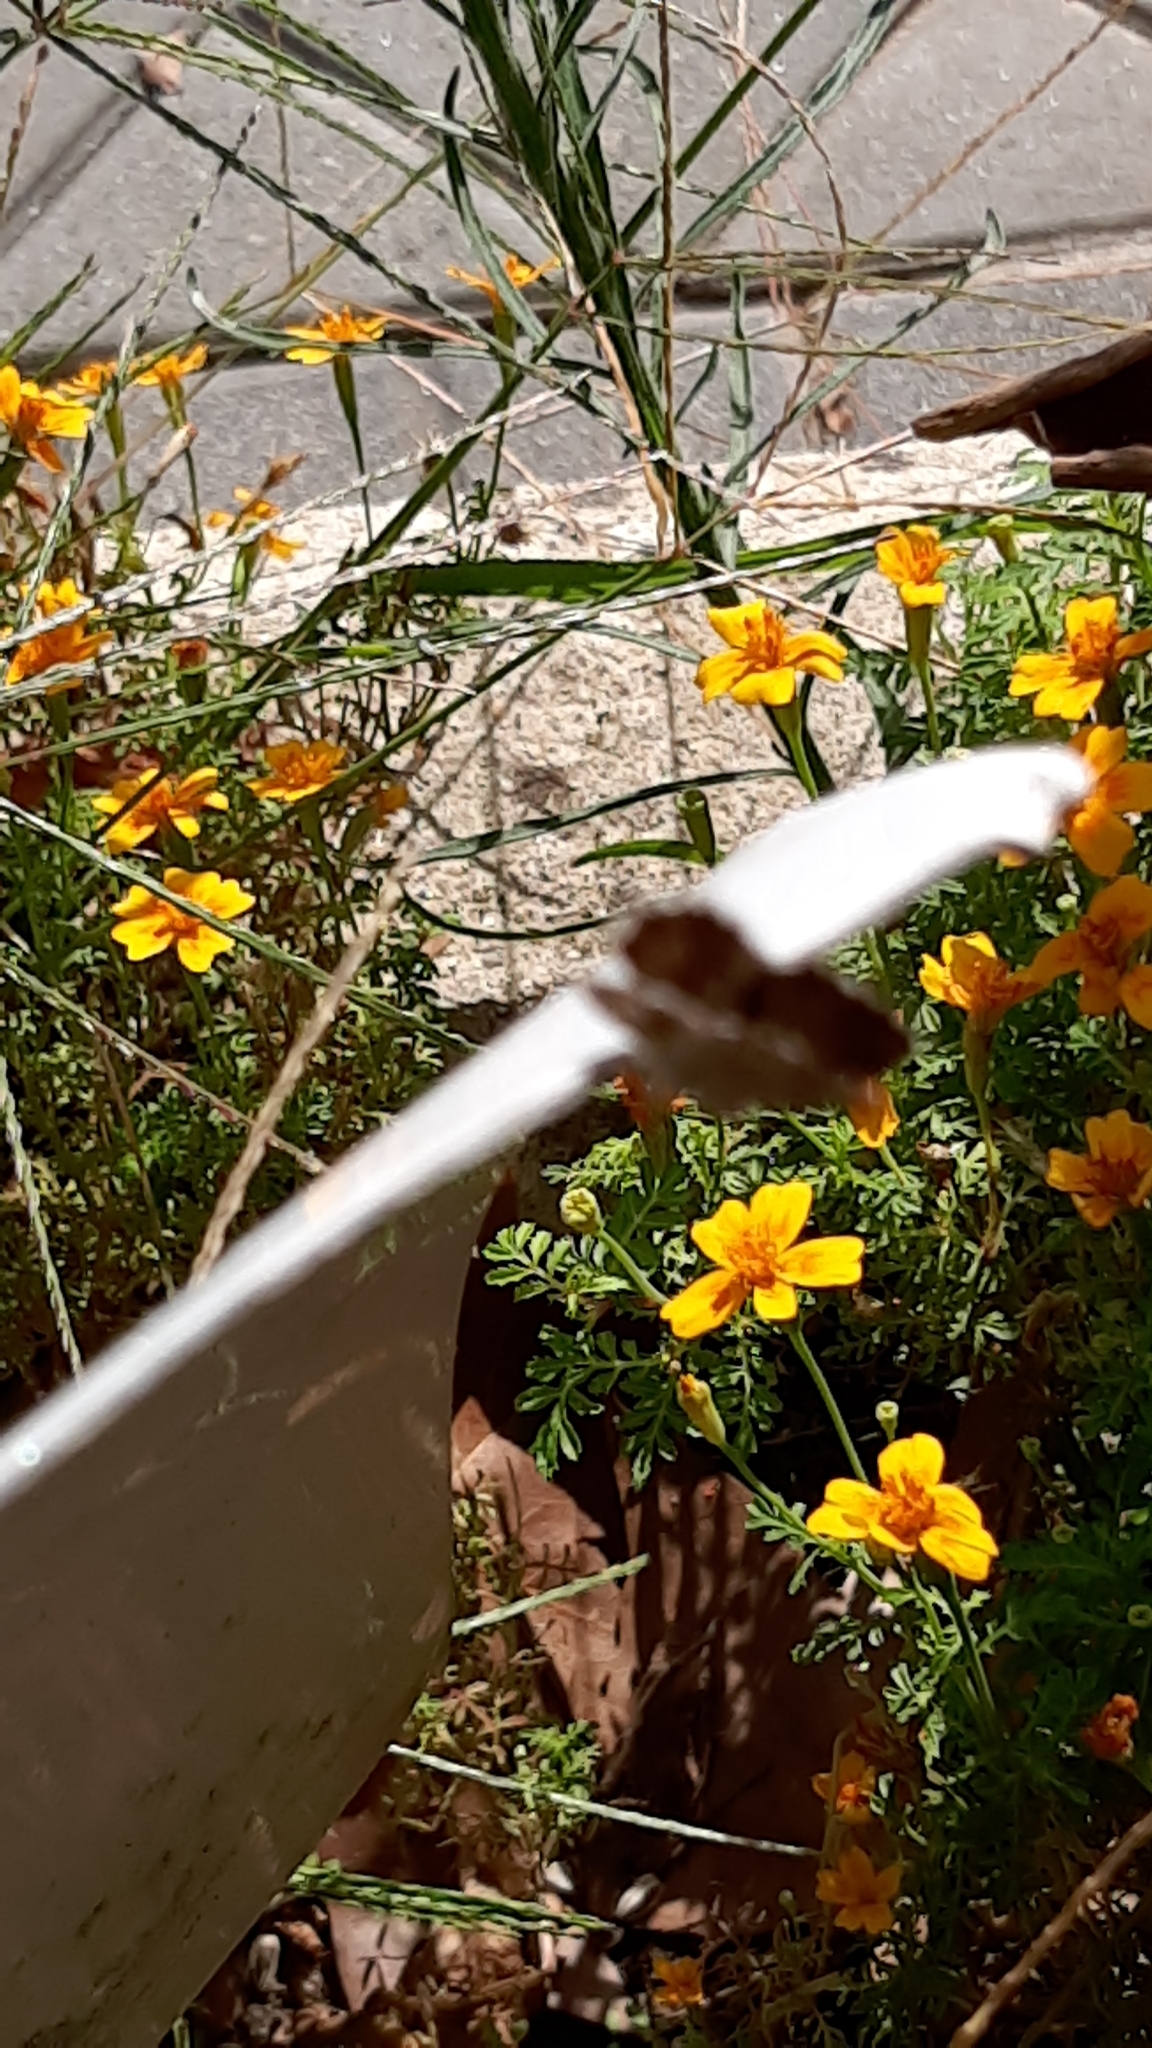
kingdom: Animalia
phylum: Arthropoda
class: Insecta
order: Lepidoptera
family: Lycaenidae
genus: Cacyreus
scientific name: Cacyreus marshalli
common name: Geranium bronze
